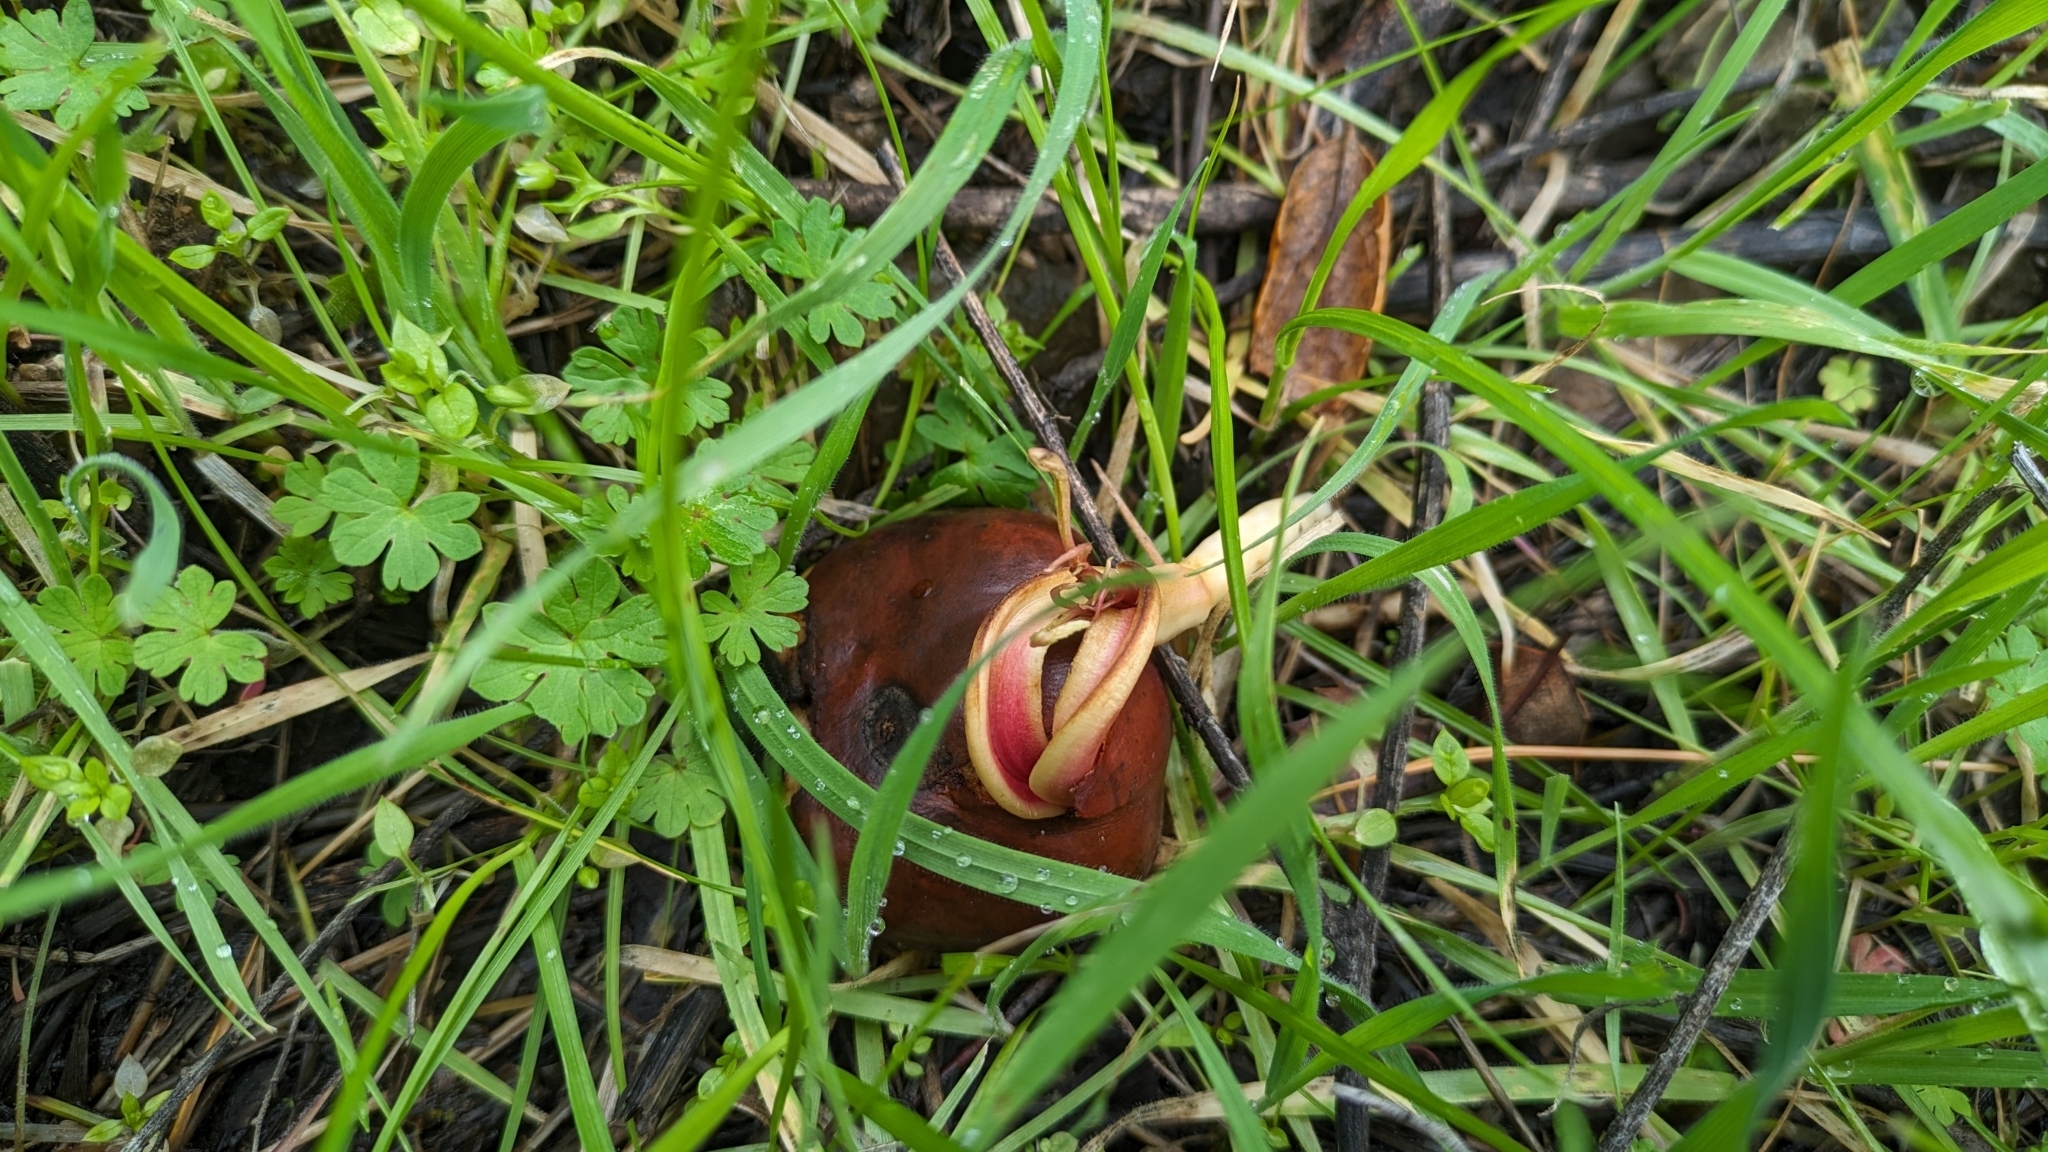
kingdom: Plantae
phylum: Tracheophyta
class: Magnoliopsida
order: Sapindales
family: Sapindaceae
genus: Aesculus
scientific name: Aesculus californica
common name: California buckeye
